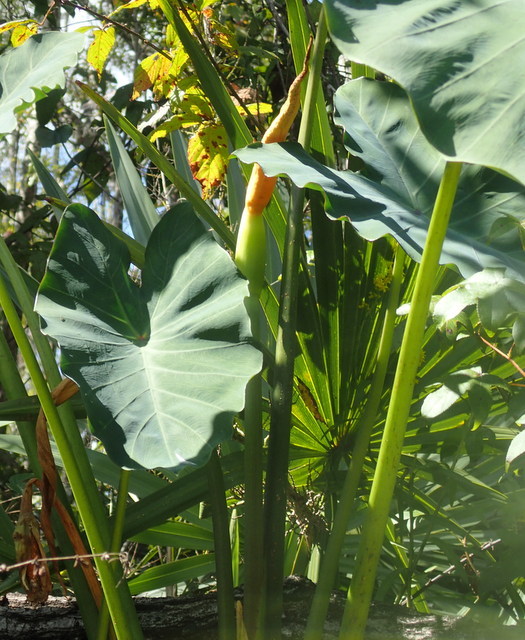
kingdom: Plantae
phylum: Tracheophyta
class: Liliopsida
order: Alismatales
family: Araceae
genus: Colocasia
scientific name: Colocasia esculenta
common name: Taro
